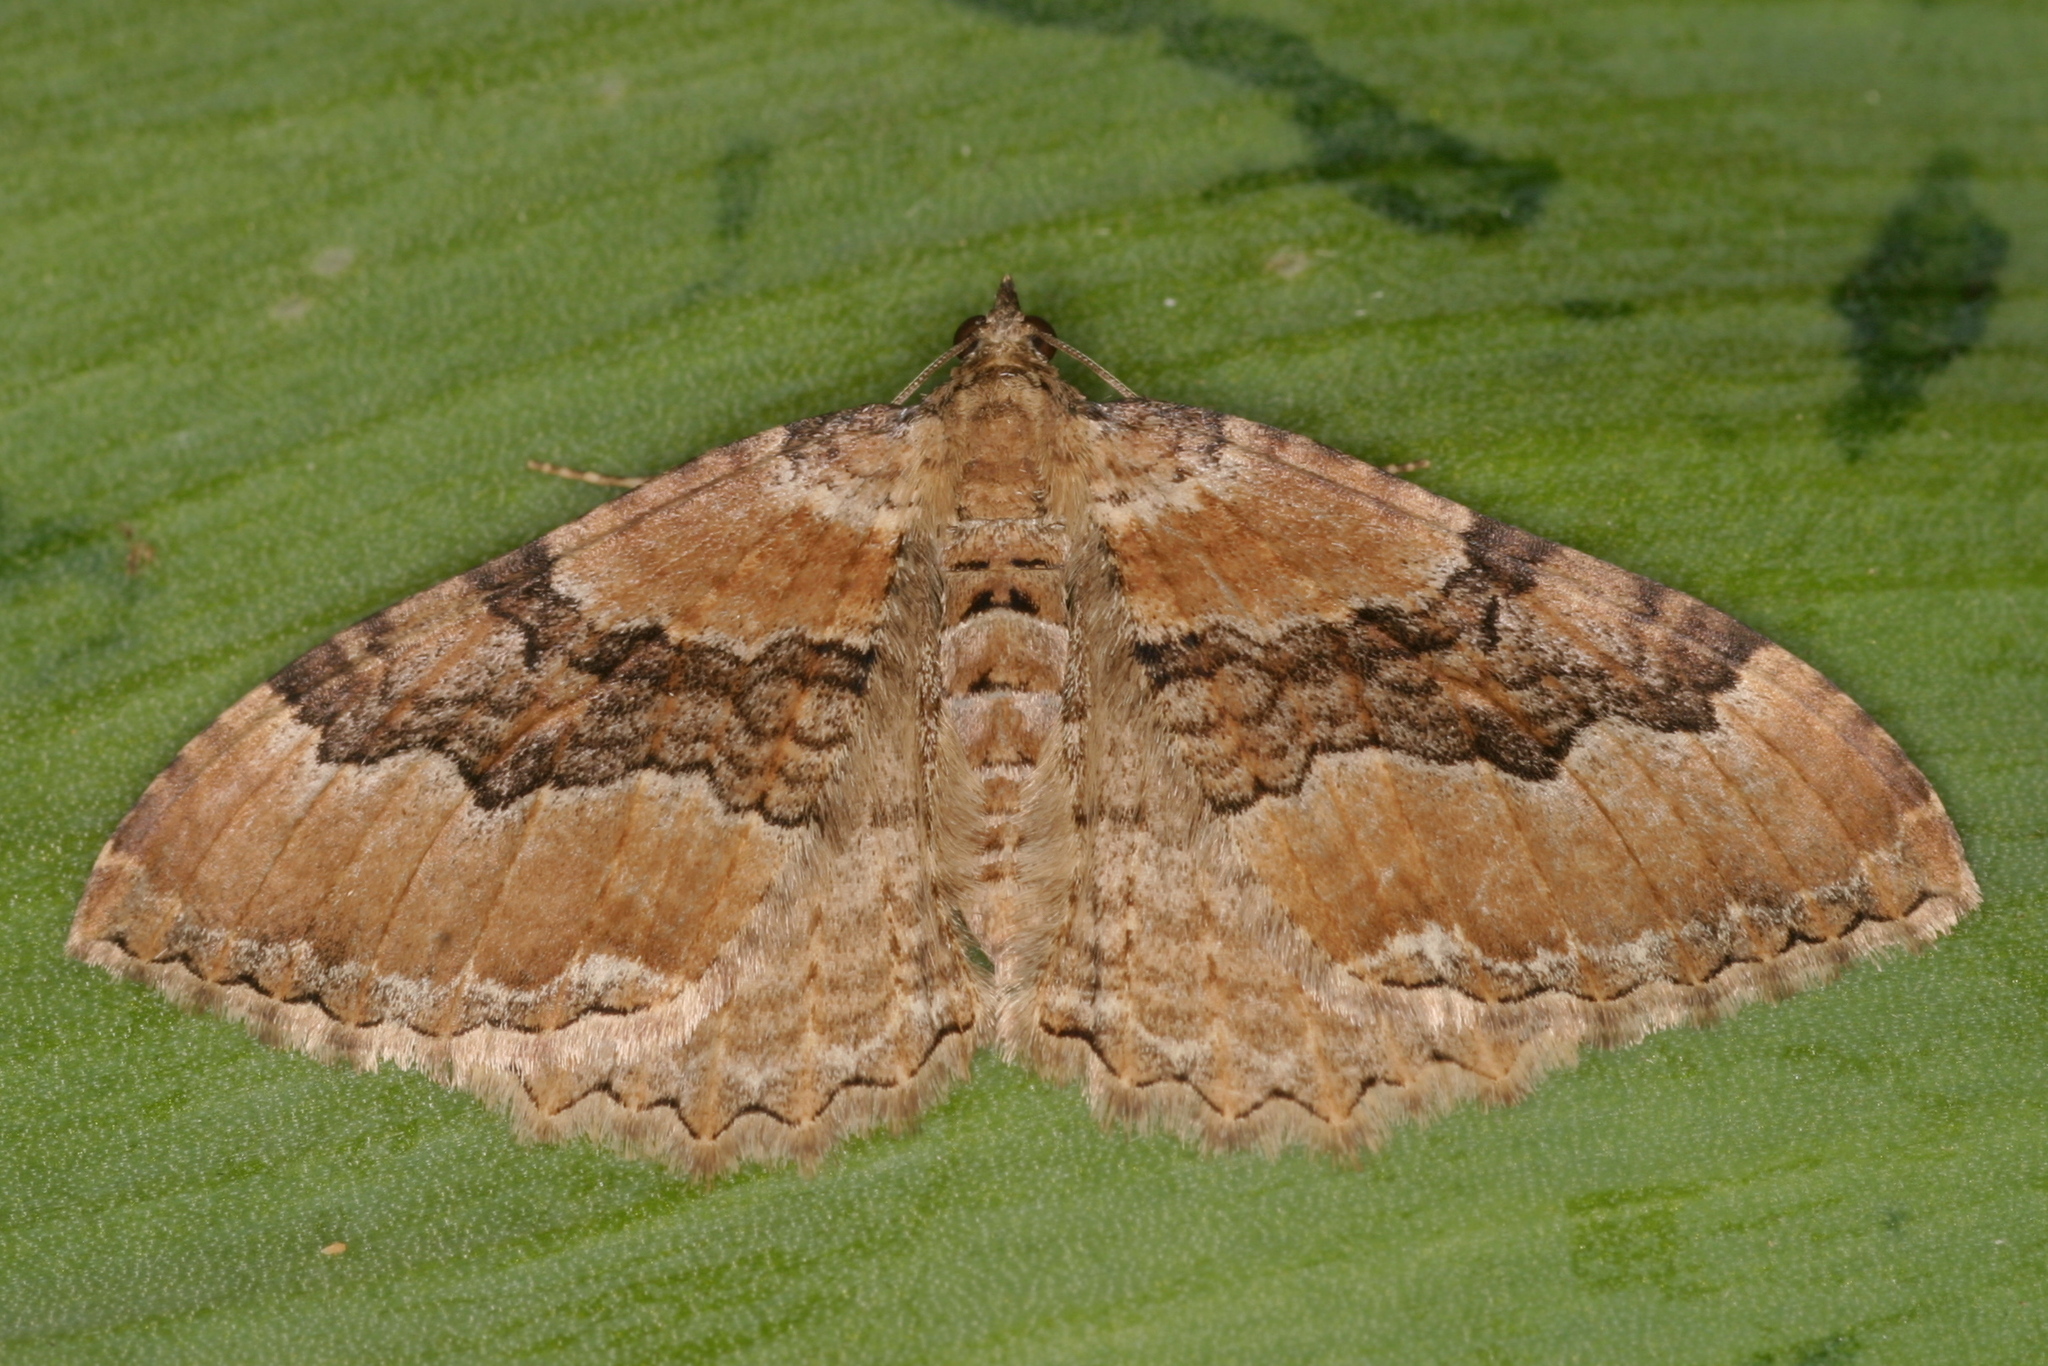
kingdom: Animalia
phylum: Arthropoda
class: Insecta
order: Lepidoptera
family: Geometridae
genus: Rheumaptera
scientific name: Rheumaptera Hydria cervinalis
